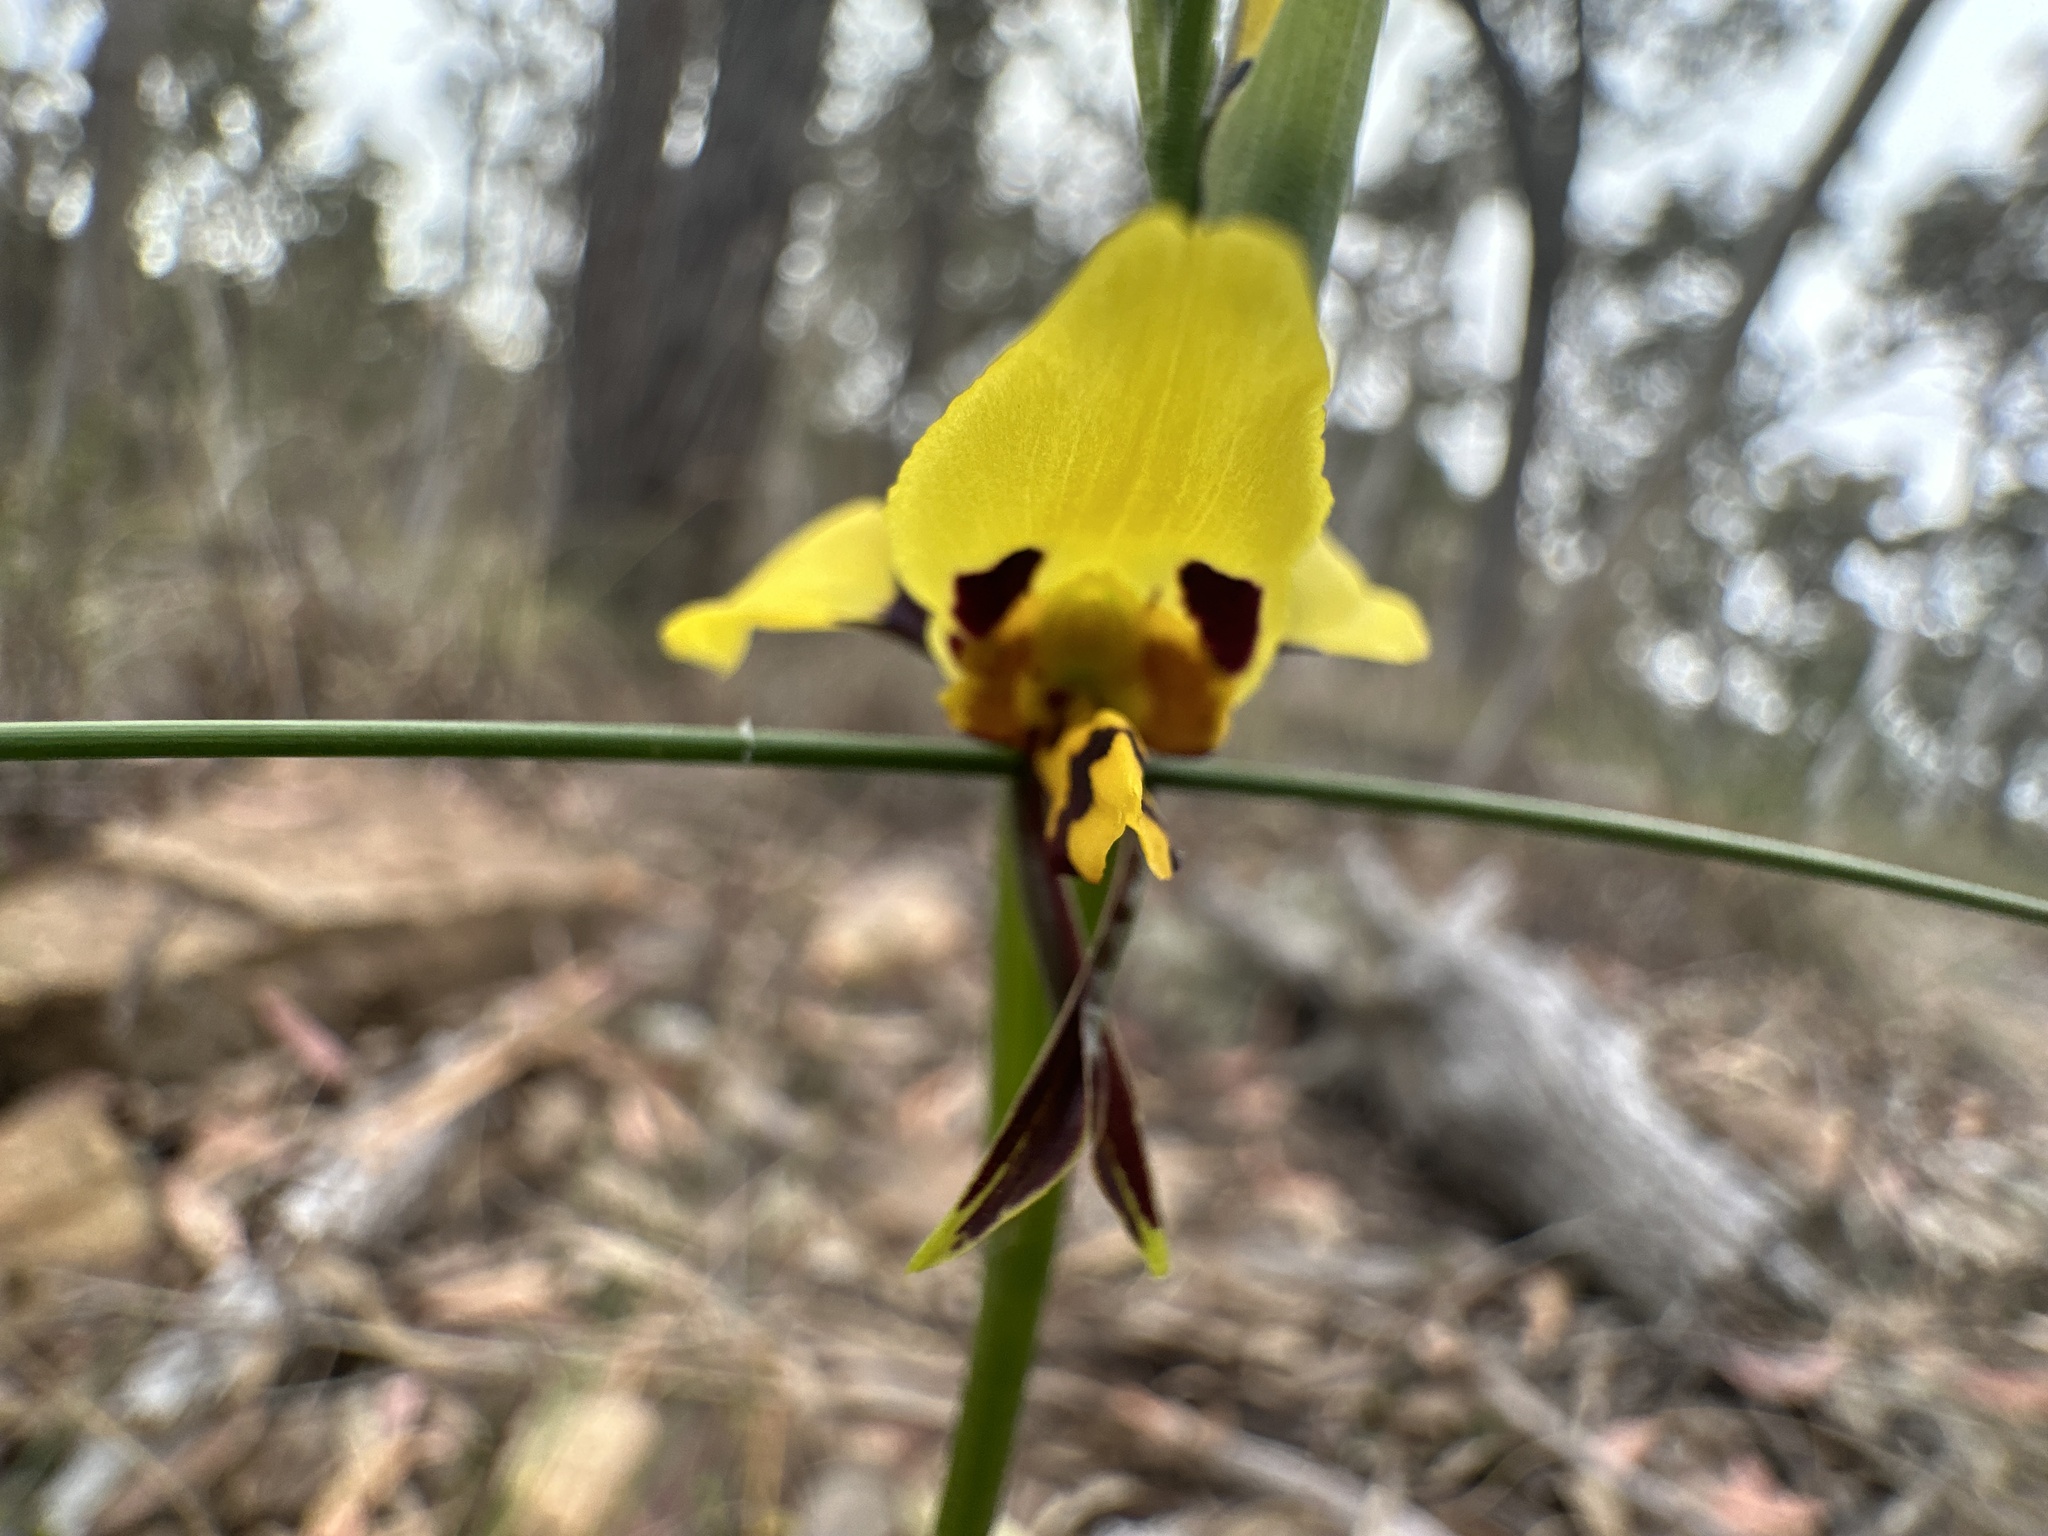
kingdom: Plantae
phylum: Tracheophyta
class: Liliopsida
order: Asparagales
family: Orchidaceae
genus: Diuris
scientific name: Diuris sulphurea
